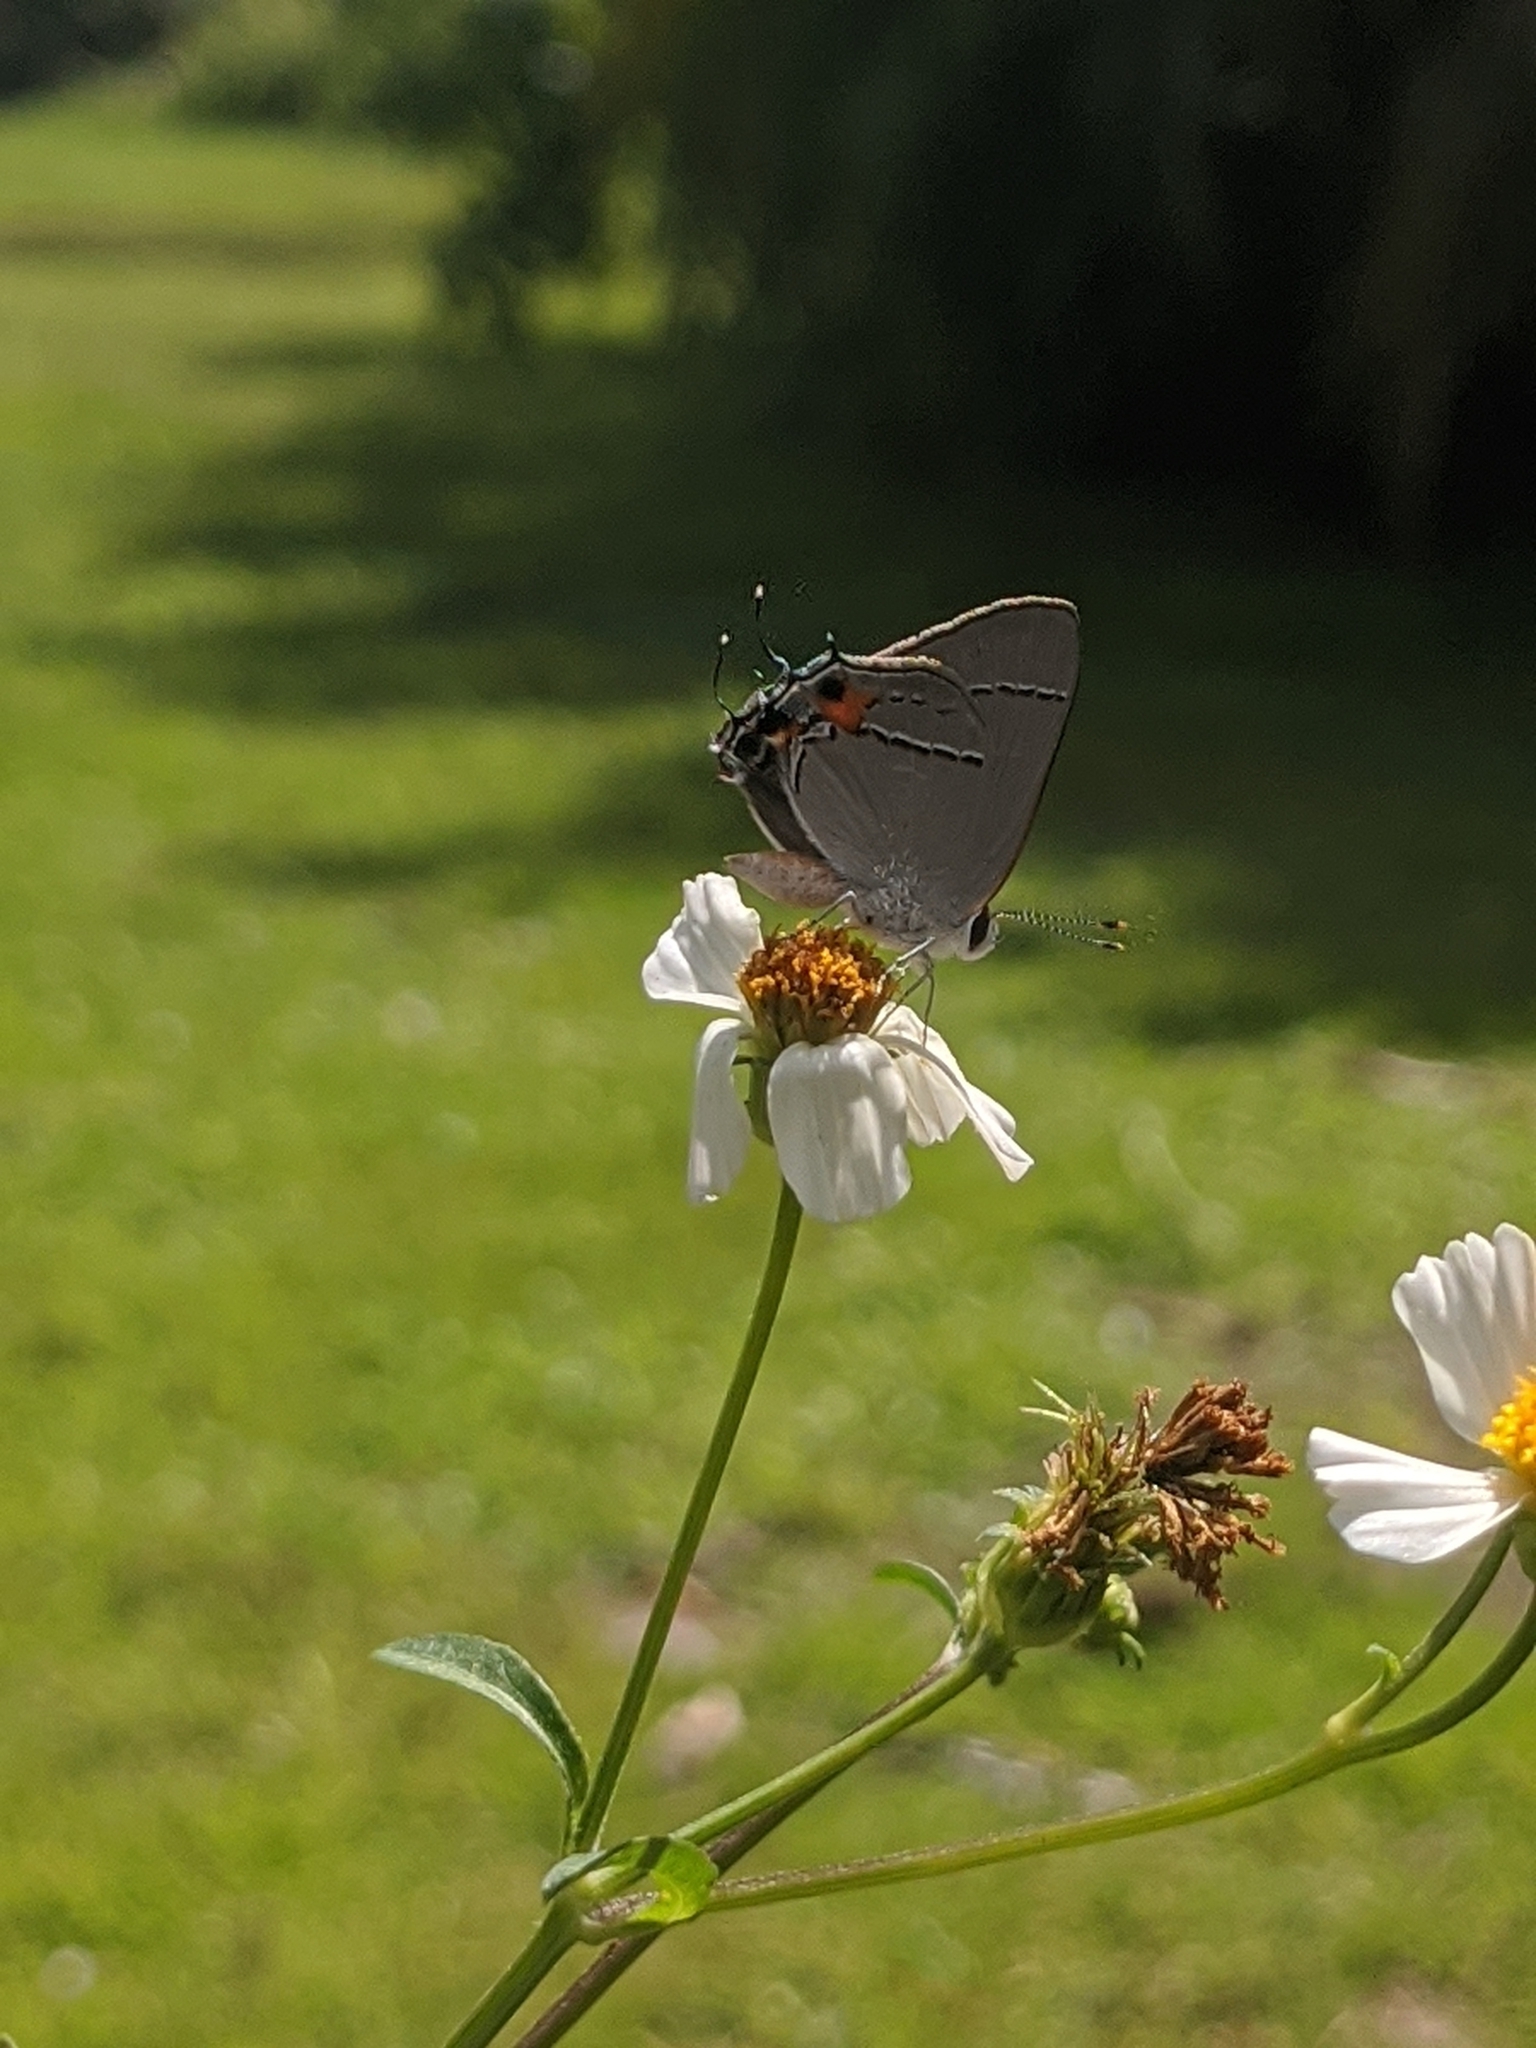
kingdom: Animalia
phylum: Arthropoda
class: Insecta
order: Lepidoptera
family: Lycaenidae
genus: Strymon
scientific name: Strymon melinus
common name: Gray hairstreak
